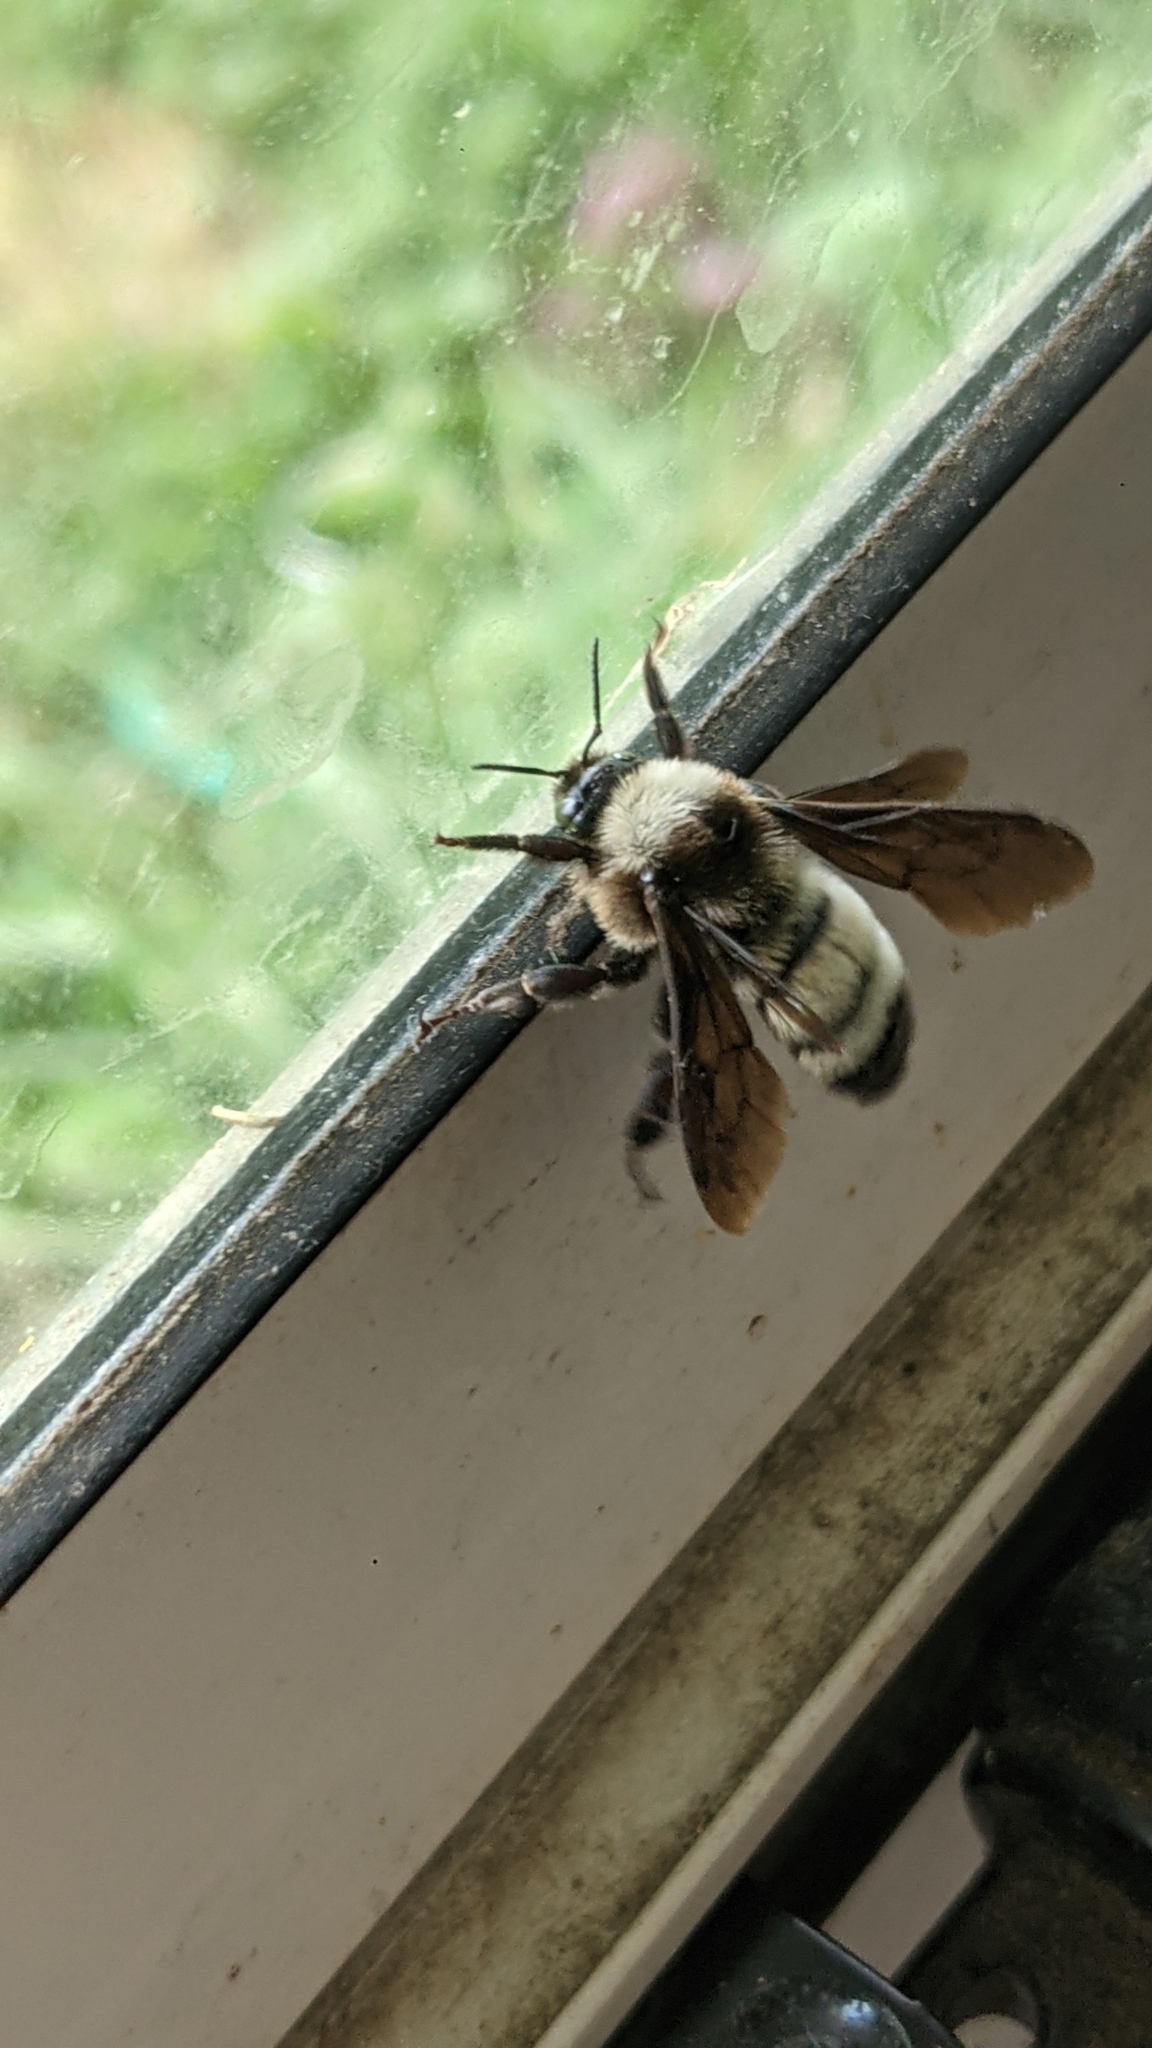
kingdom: Animalia
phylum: Arthropoda
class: Insecta
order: Hymenoptera
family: Apidae
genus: Bombus
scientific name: Bombus pensylvanicus
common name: Bumble bee
